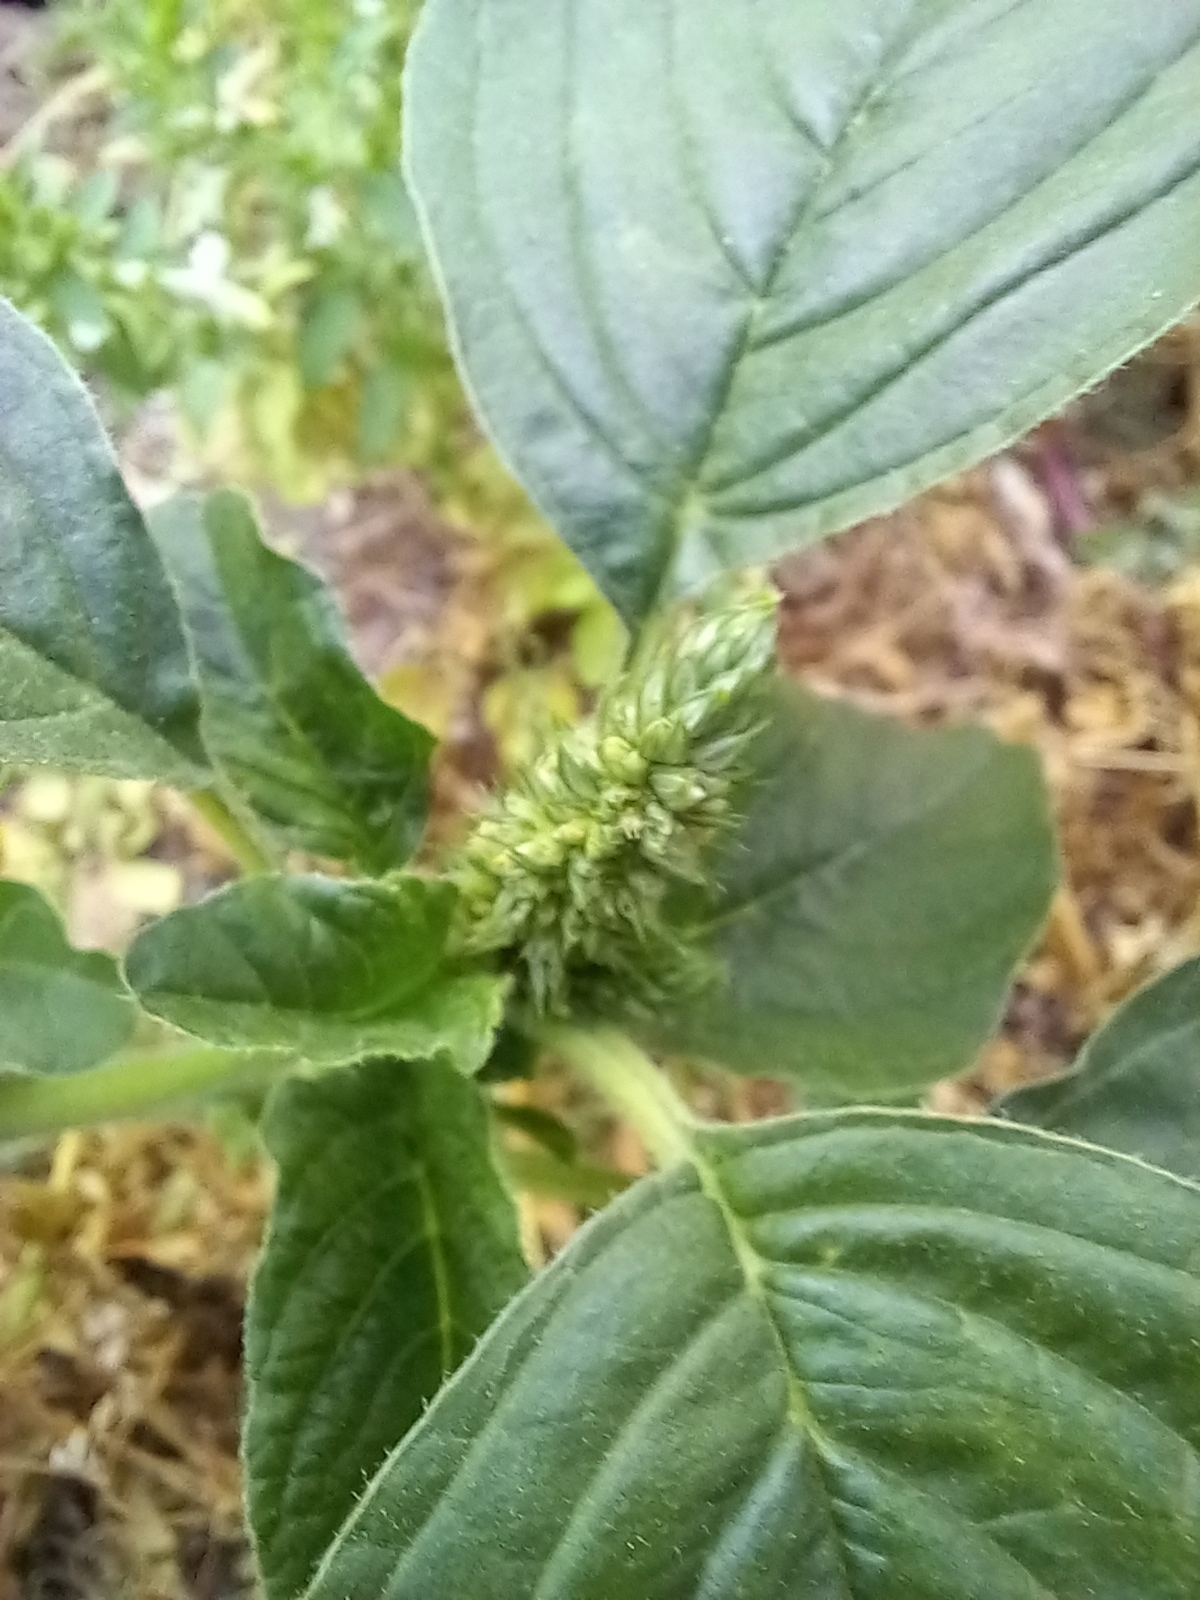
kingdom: Plantae
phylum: Tracheophyta
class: Magnoliopsida
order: Caryophyllales
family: Amaranthaceae
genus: Amaranthus
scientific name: Amaranthus retroflexus
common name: Redroot amaranth
